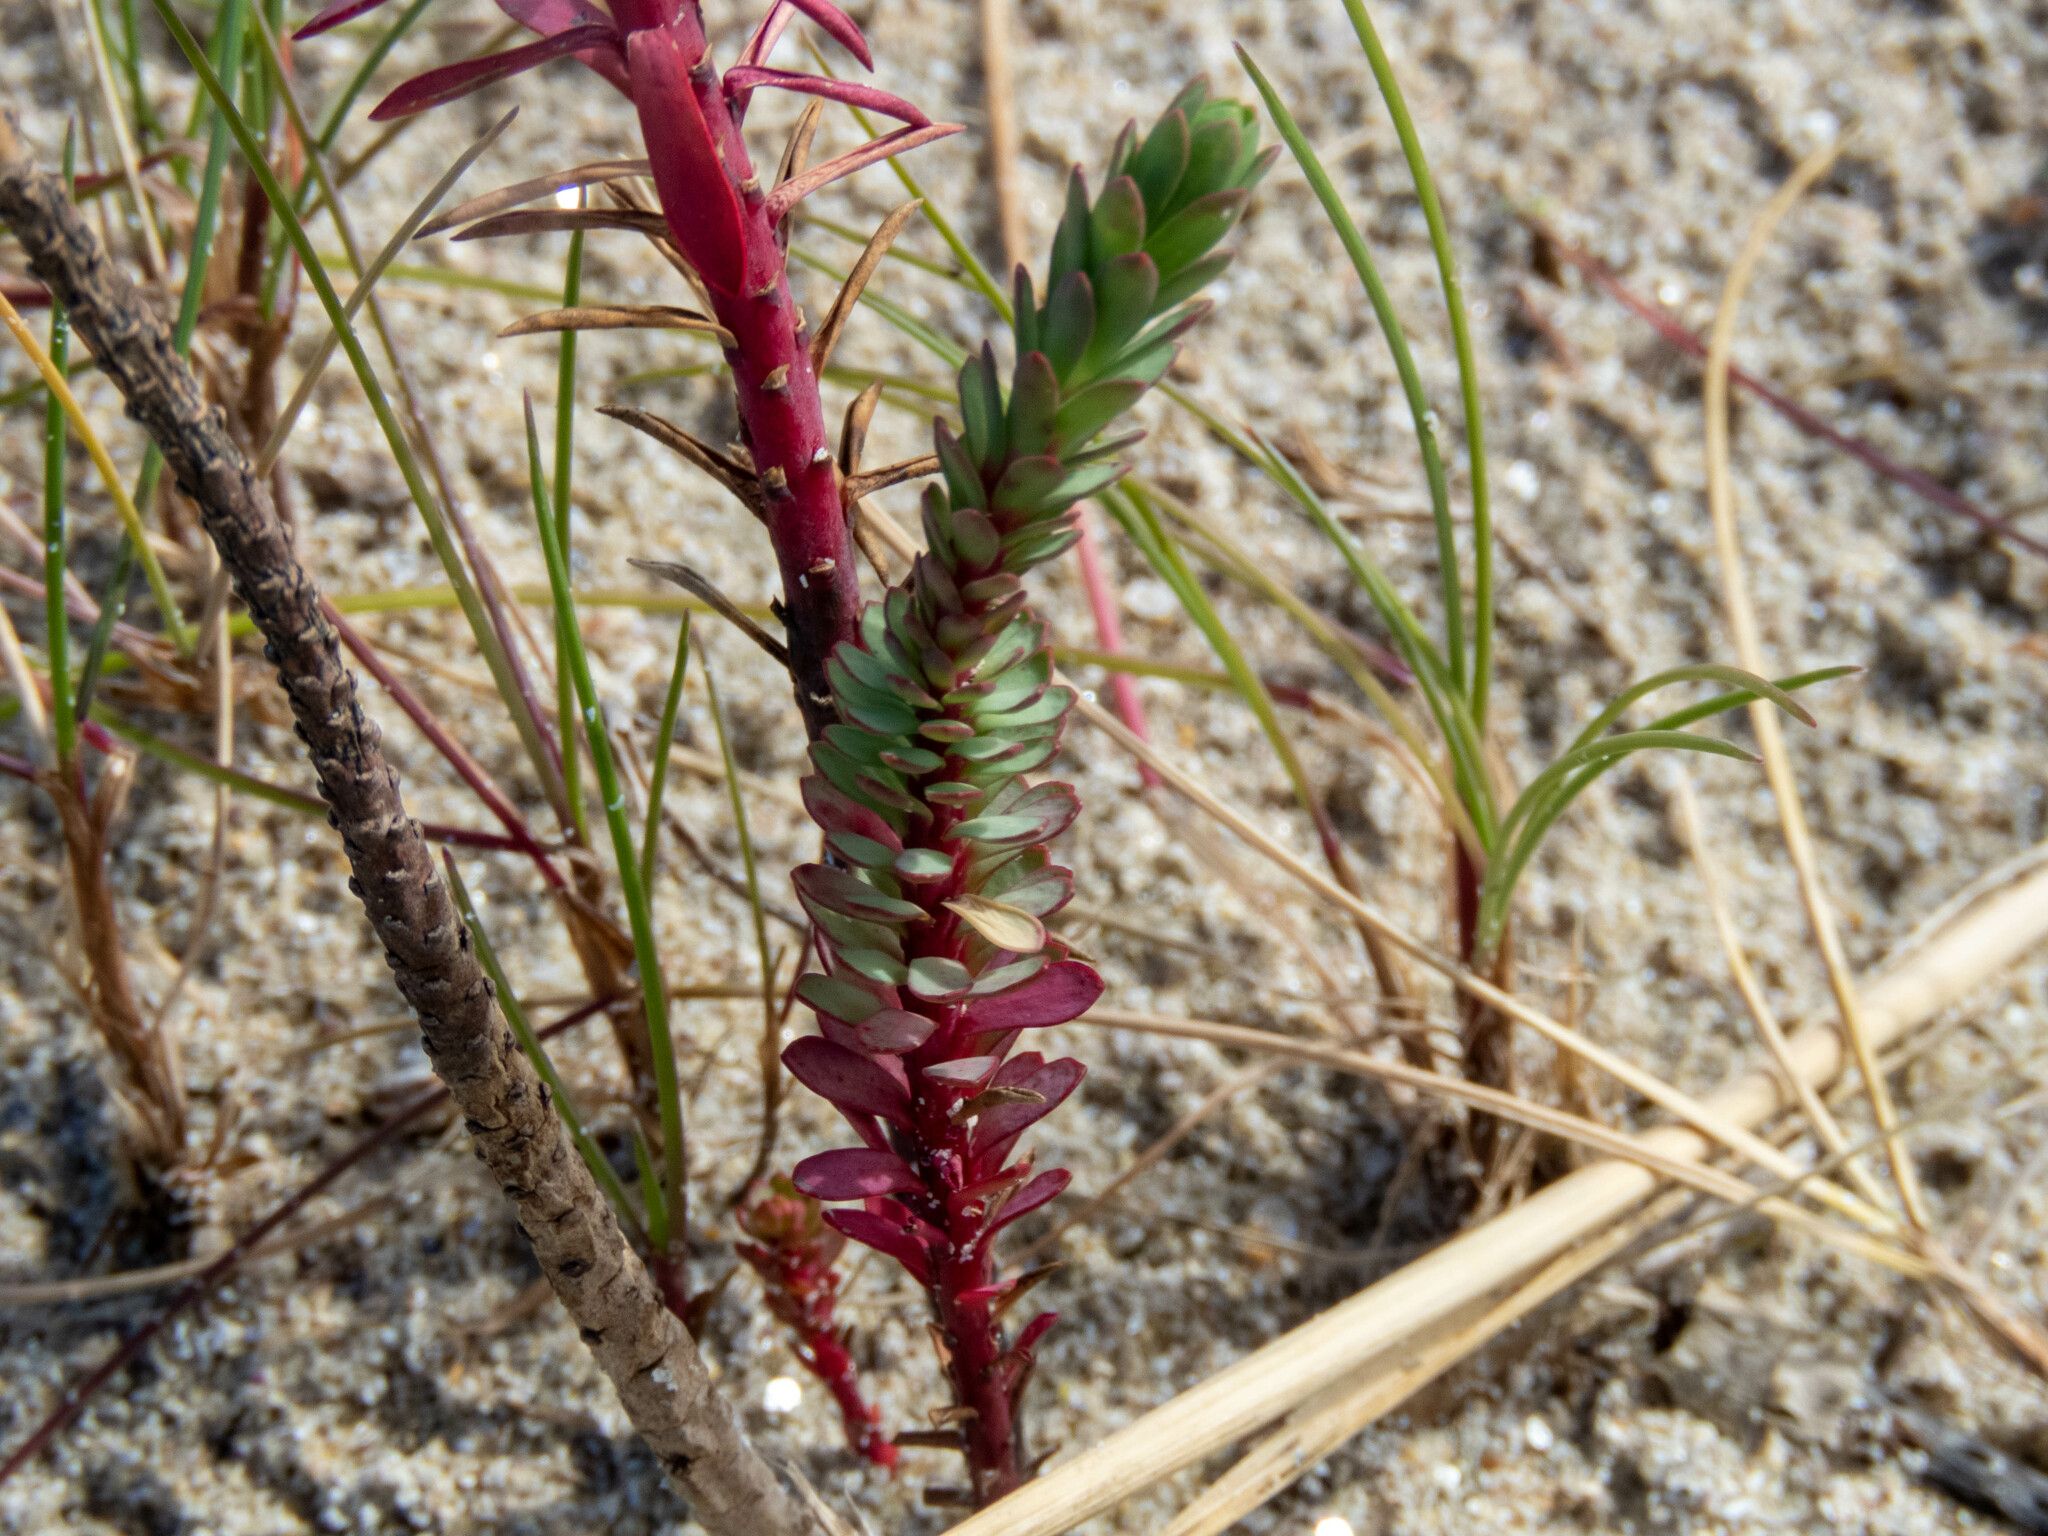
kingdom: Plantae
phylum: Tracheophyta
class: Magnoliopsida
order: Malpighiales
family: Euphorbiaceae
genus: Euphorbia
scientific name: Euphorbia paralias
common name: Sea spurge
